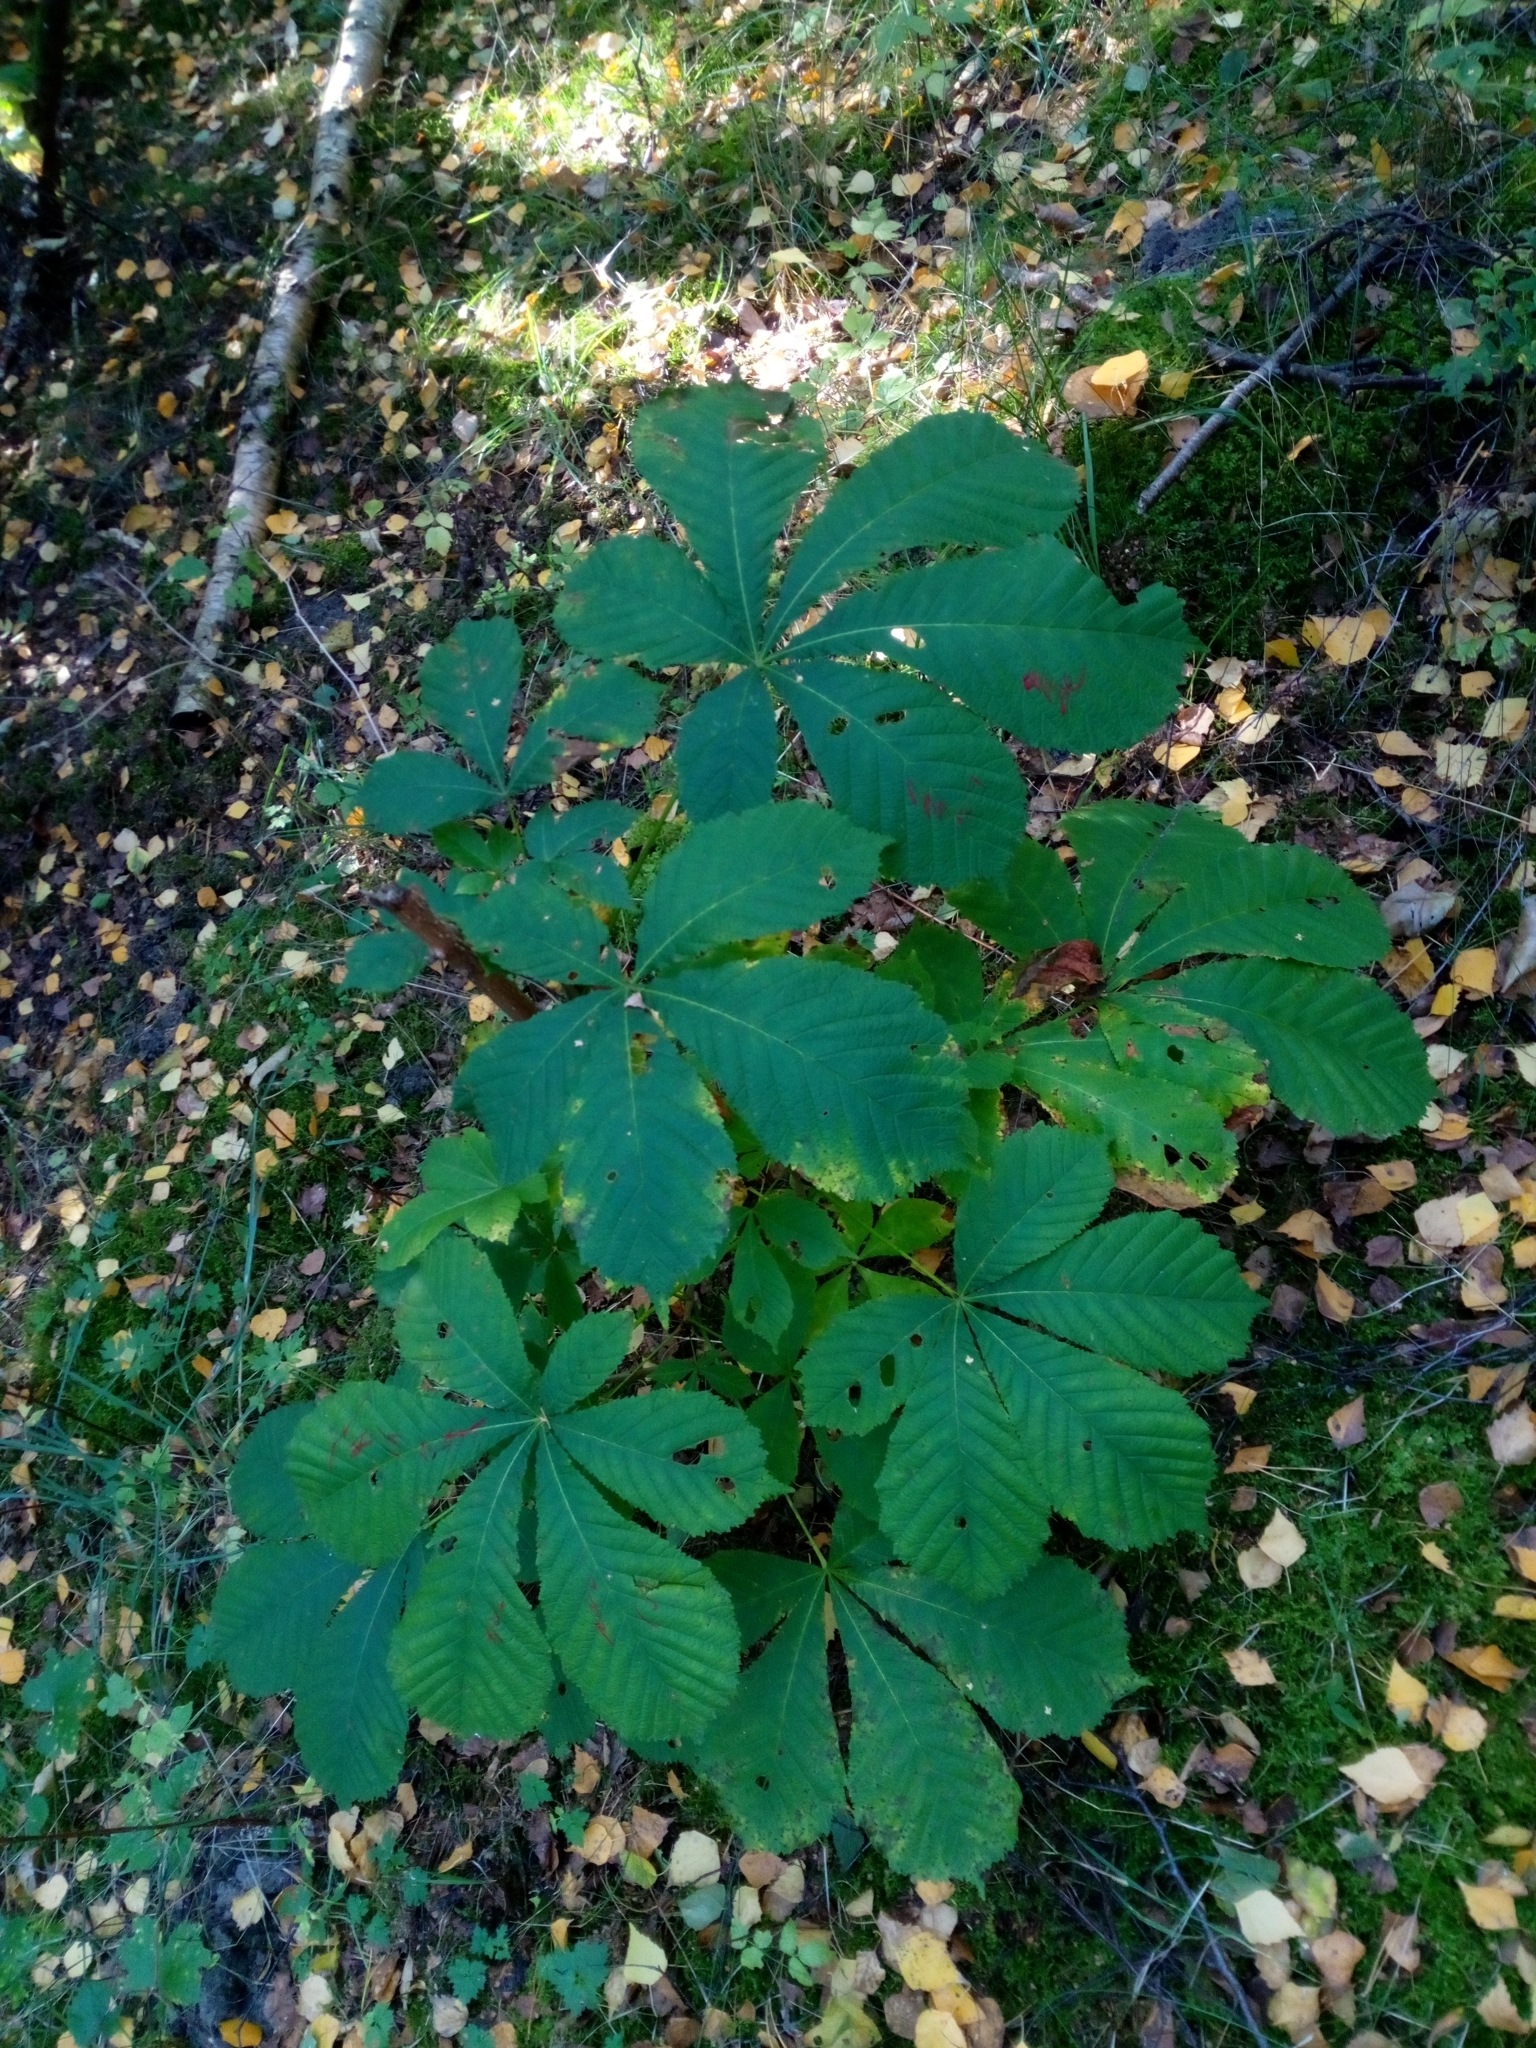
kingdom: Plantae
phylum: Tracheophyta
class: Magnoliopsida
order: Sapindales
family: Sapindaceae
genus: Aesculus
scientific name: Aesculus hippocastanum
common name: Horse-chestnut
